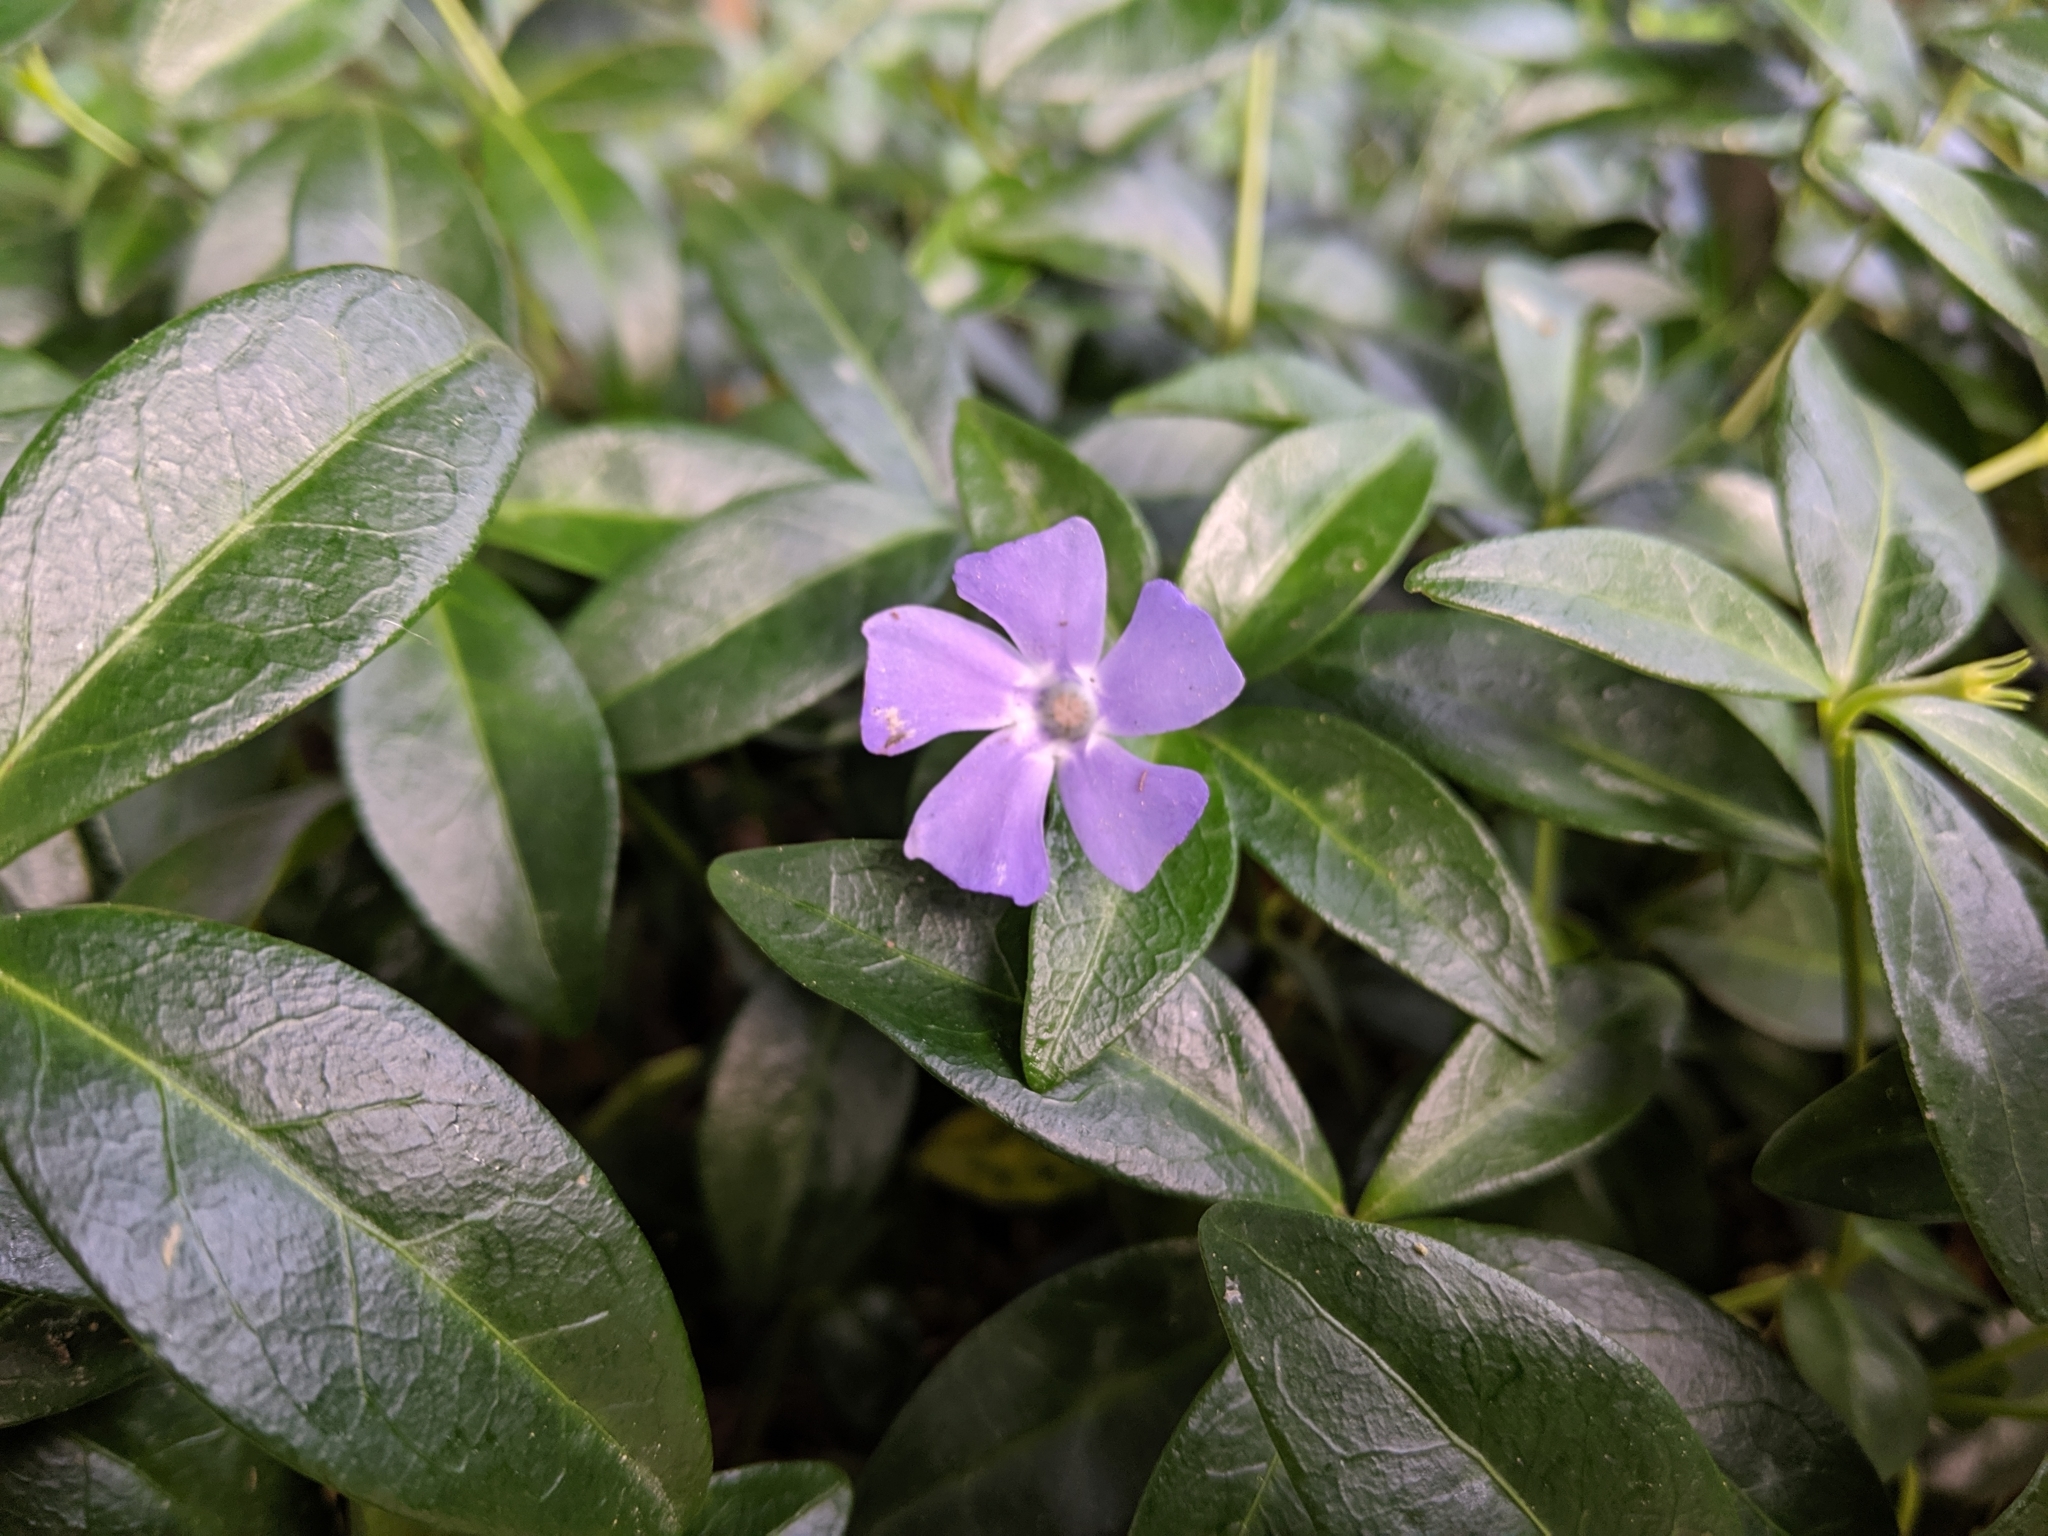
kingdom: Plantae
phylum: Tracheophyta
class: Magnoliopsida
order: Gentianales
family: Apocynaceae
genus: Vinca
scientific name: Vinca minor
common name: Lesser periwinkle
